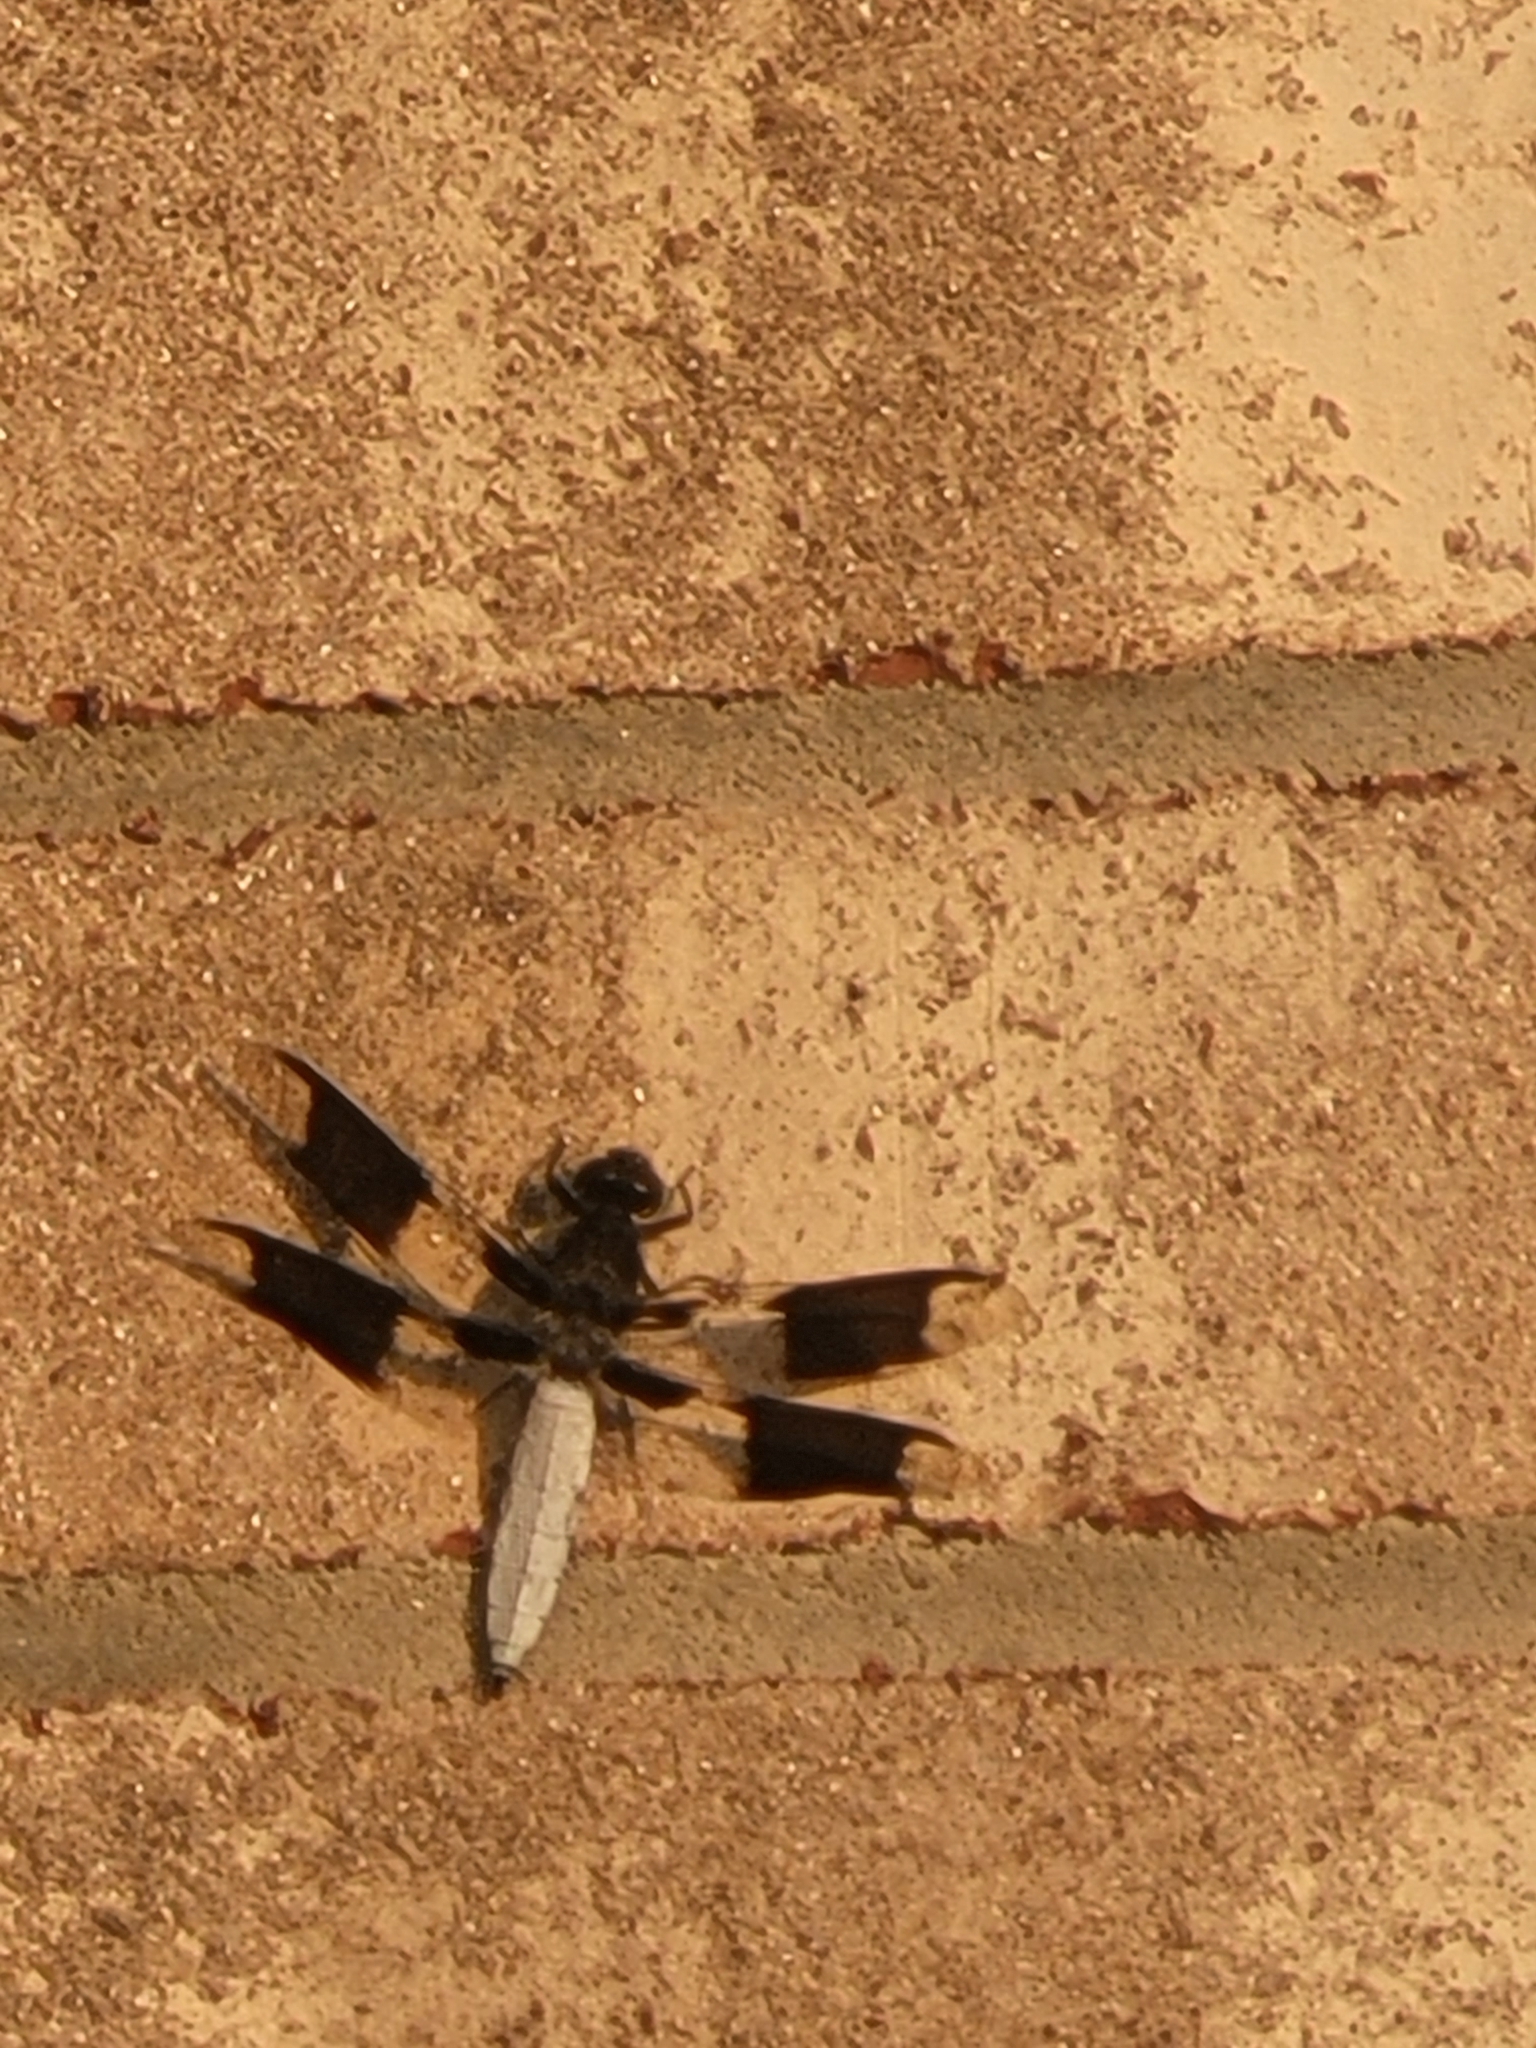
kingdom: Animalia
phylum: Arthropoda
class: Insecta
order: Odonata
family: Libellulidae
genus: Plathemis
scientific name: Plathemis lydia
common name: Common whitetail
